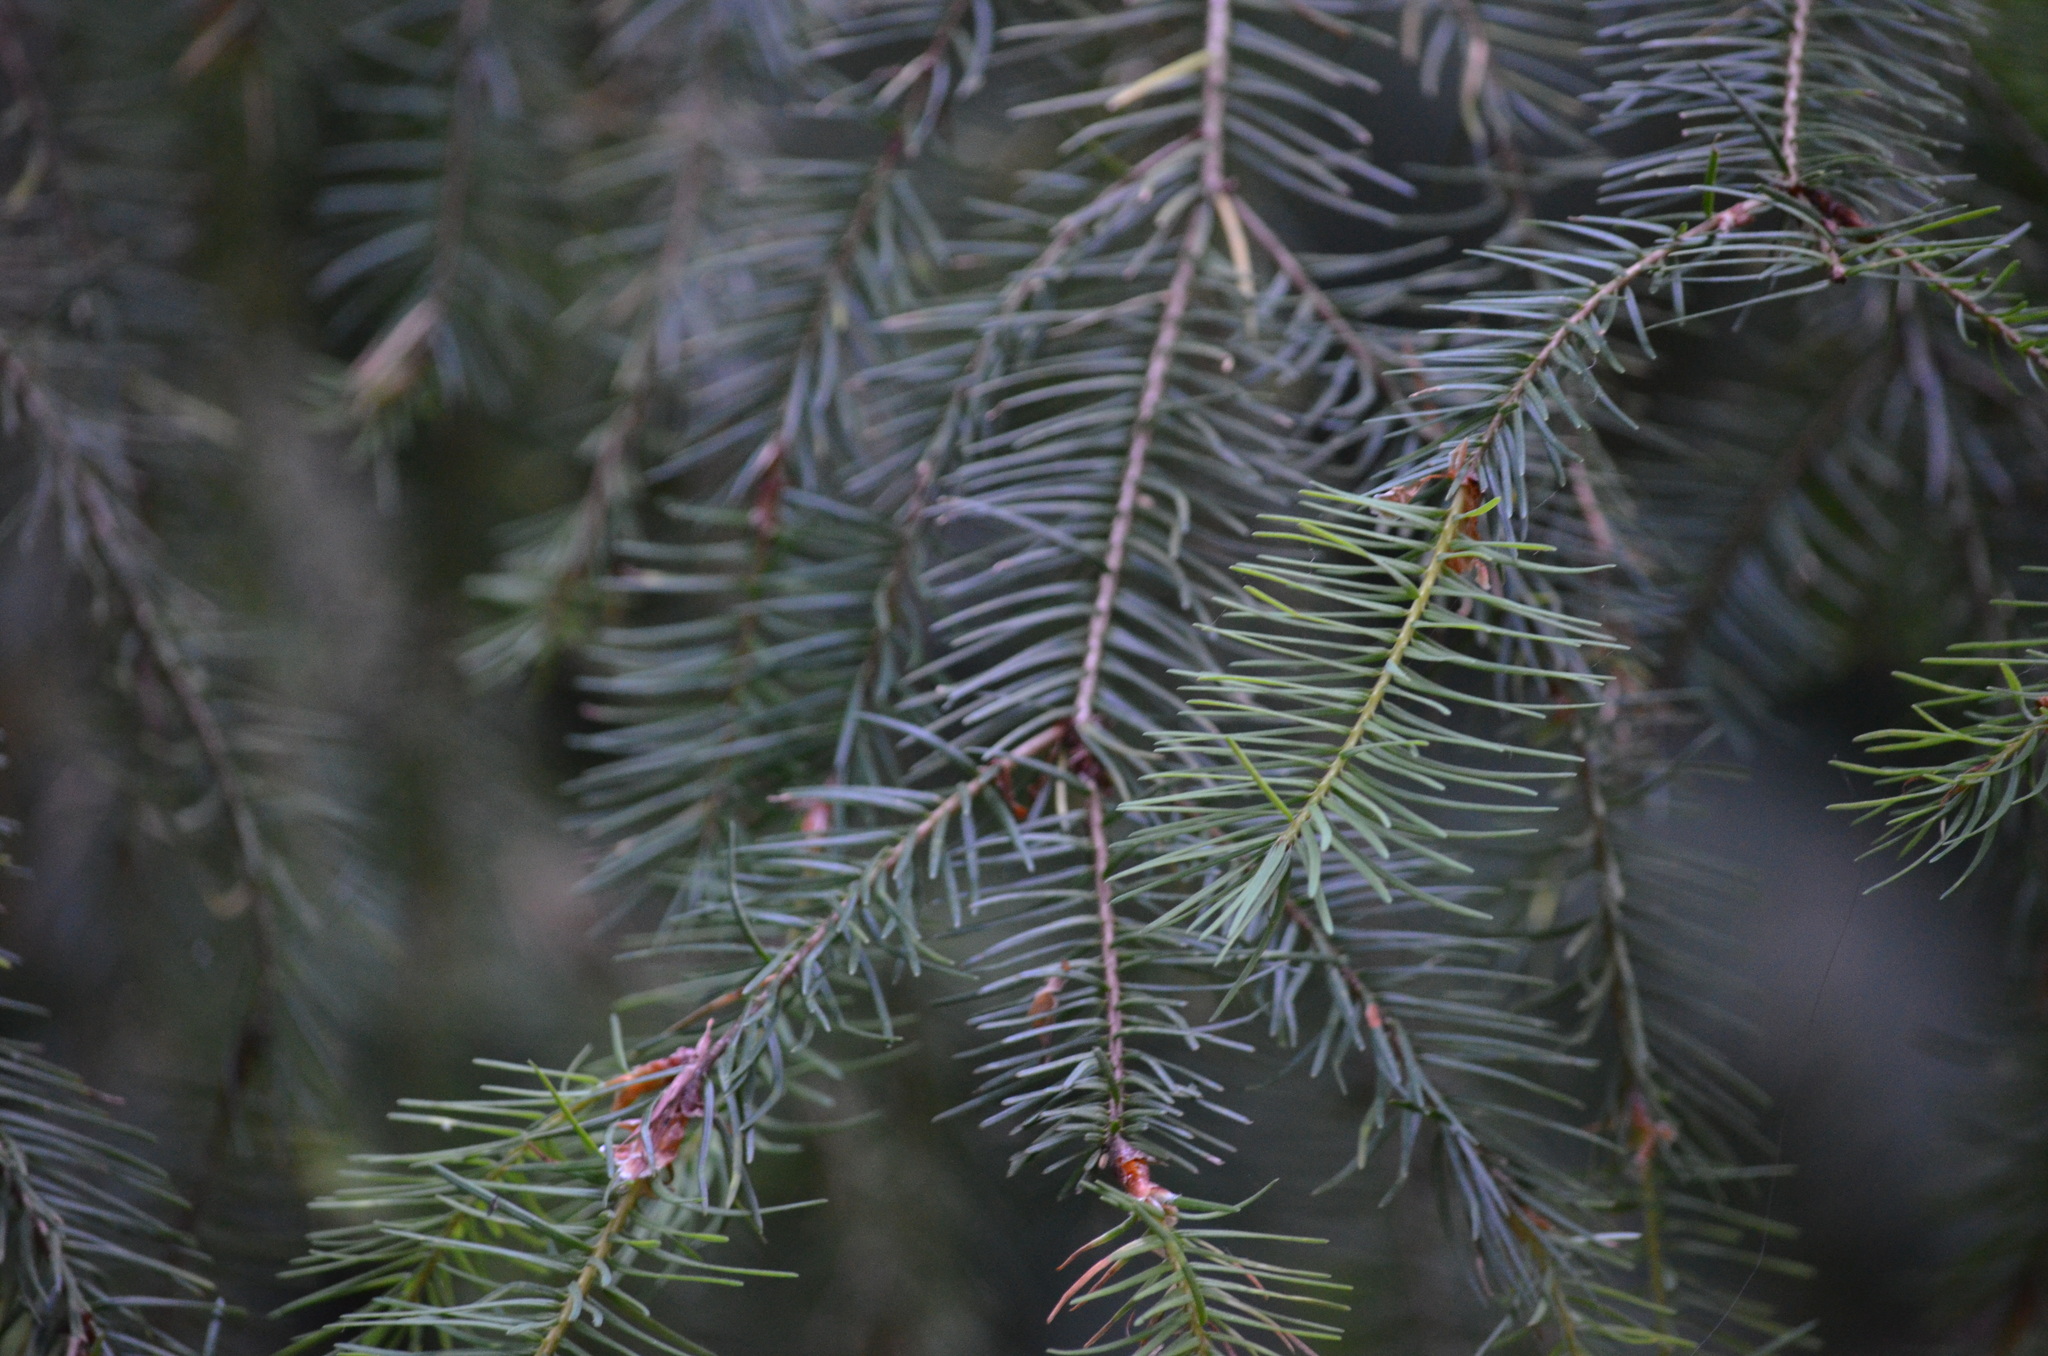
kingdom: Plantae
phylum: Tracheophyta
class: Pinopsida
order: Pinales
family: Pinaceae
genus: Pseudotsuga
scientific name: Pseudotsuga menziesii
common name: Douglas fir
